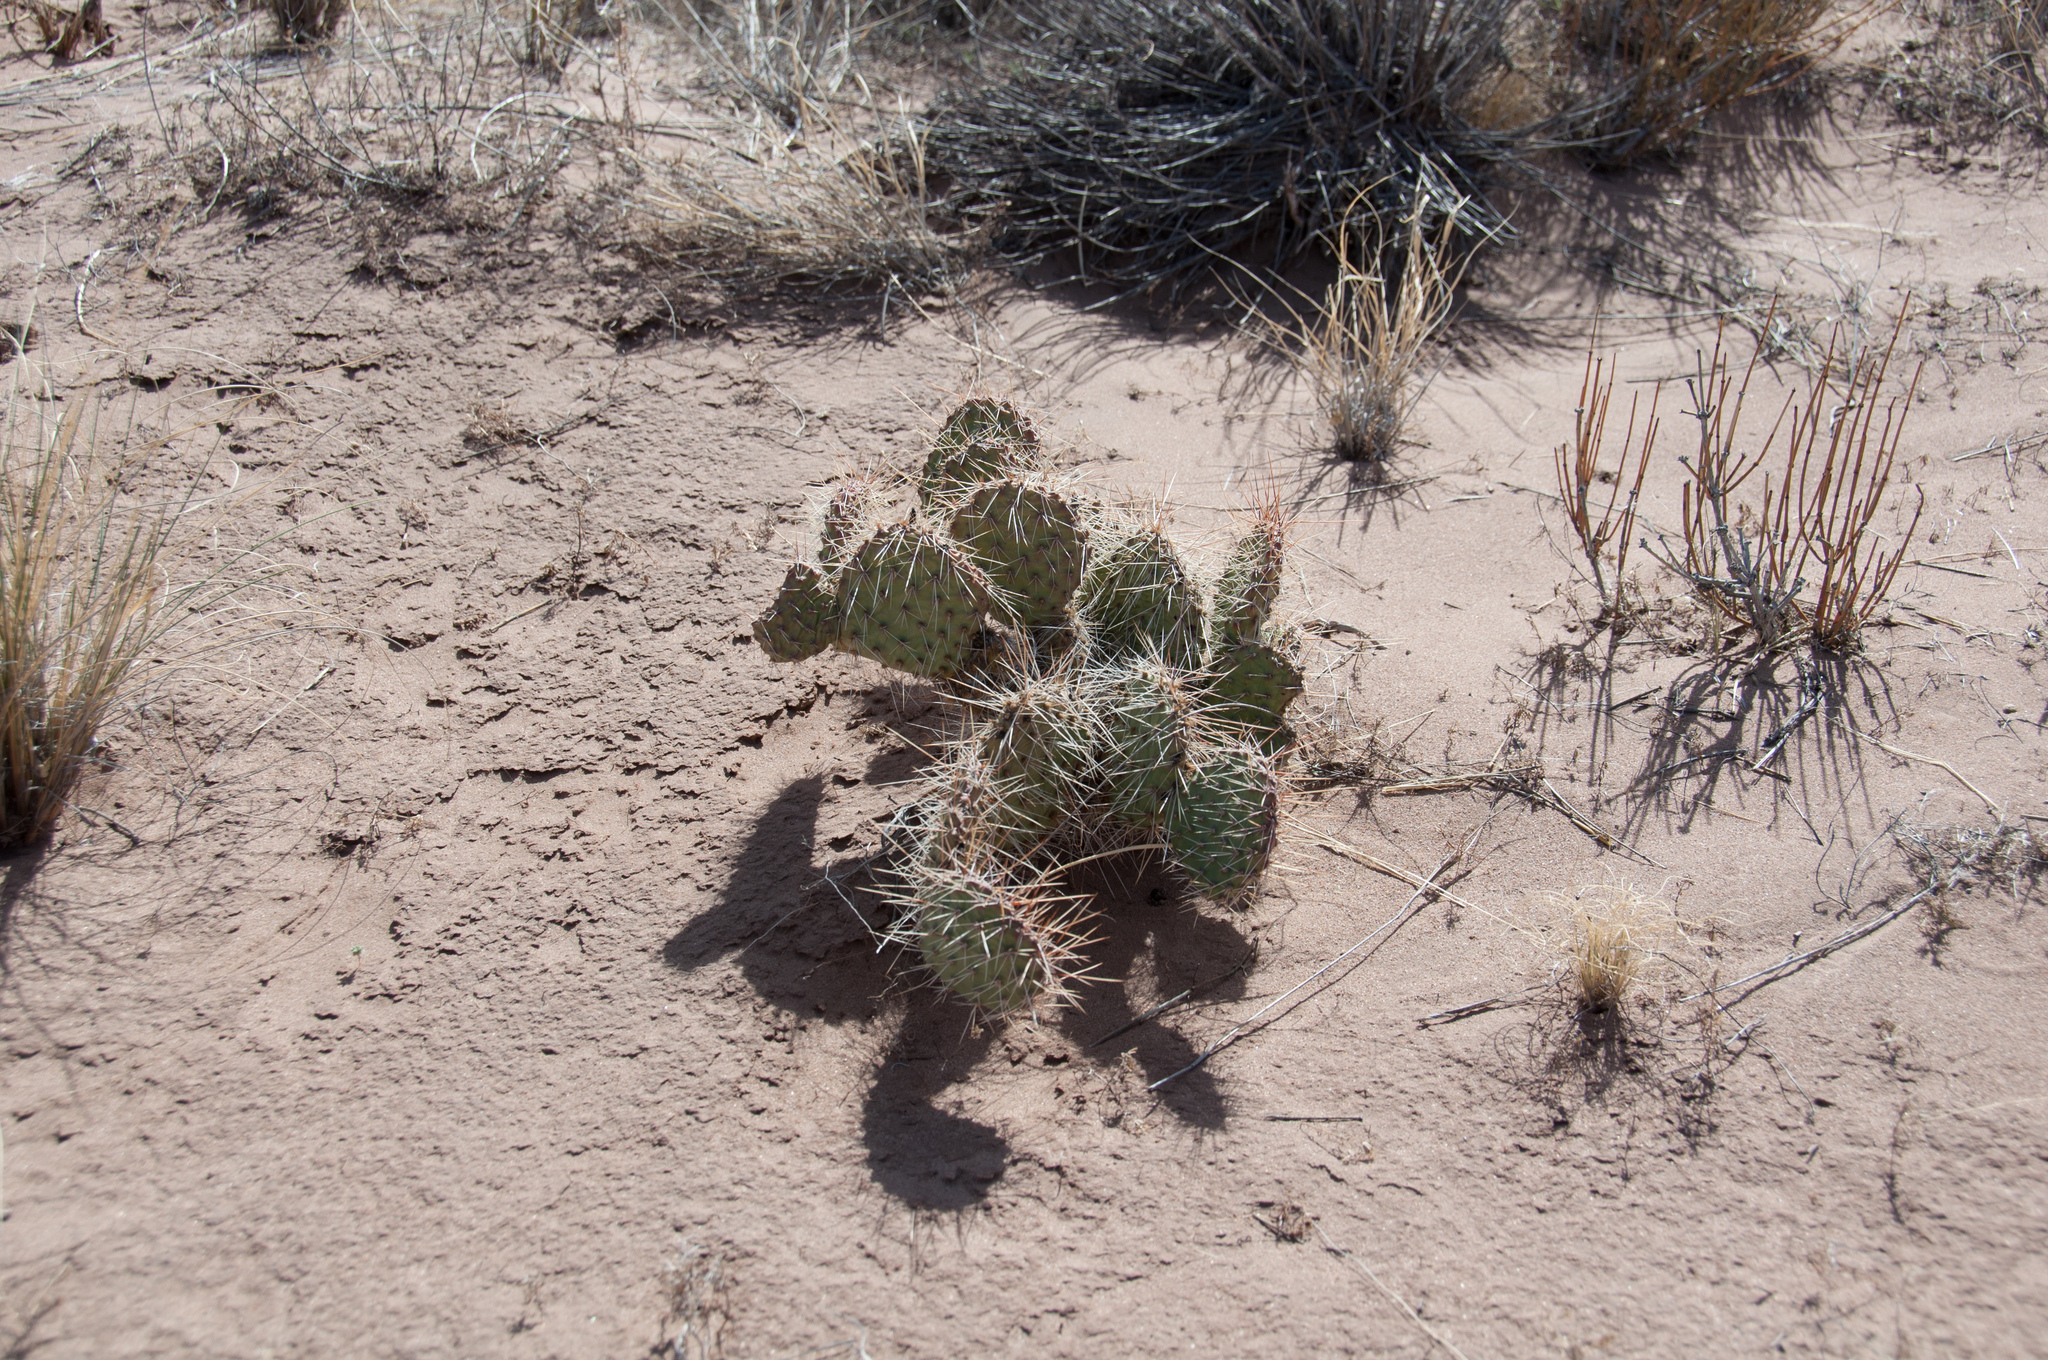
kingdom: Plantae
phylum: Tracheophyta
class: Magnoliopsida
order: Caryophyllales
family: Cactaceae
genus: Opuntia
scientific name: Opuntia polyacantha
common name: Plains prickly-pear
